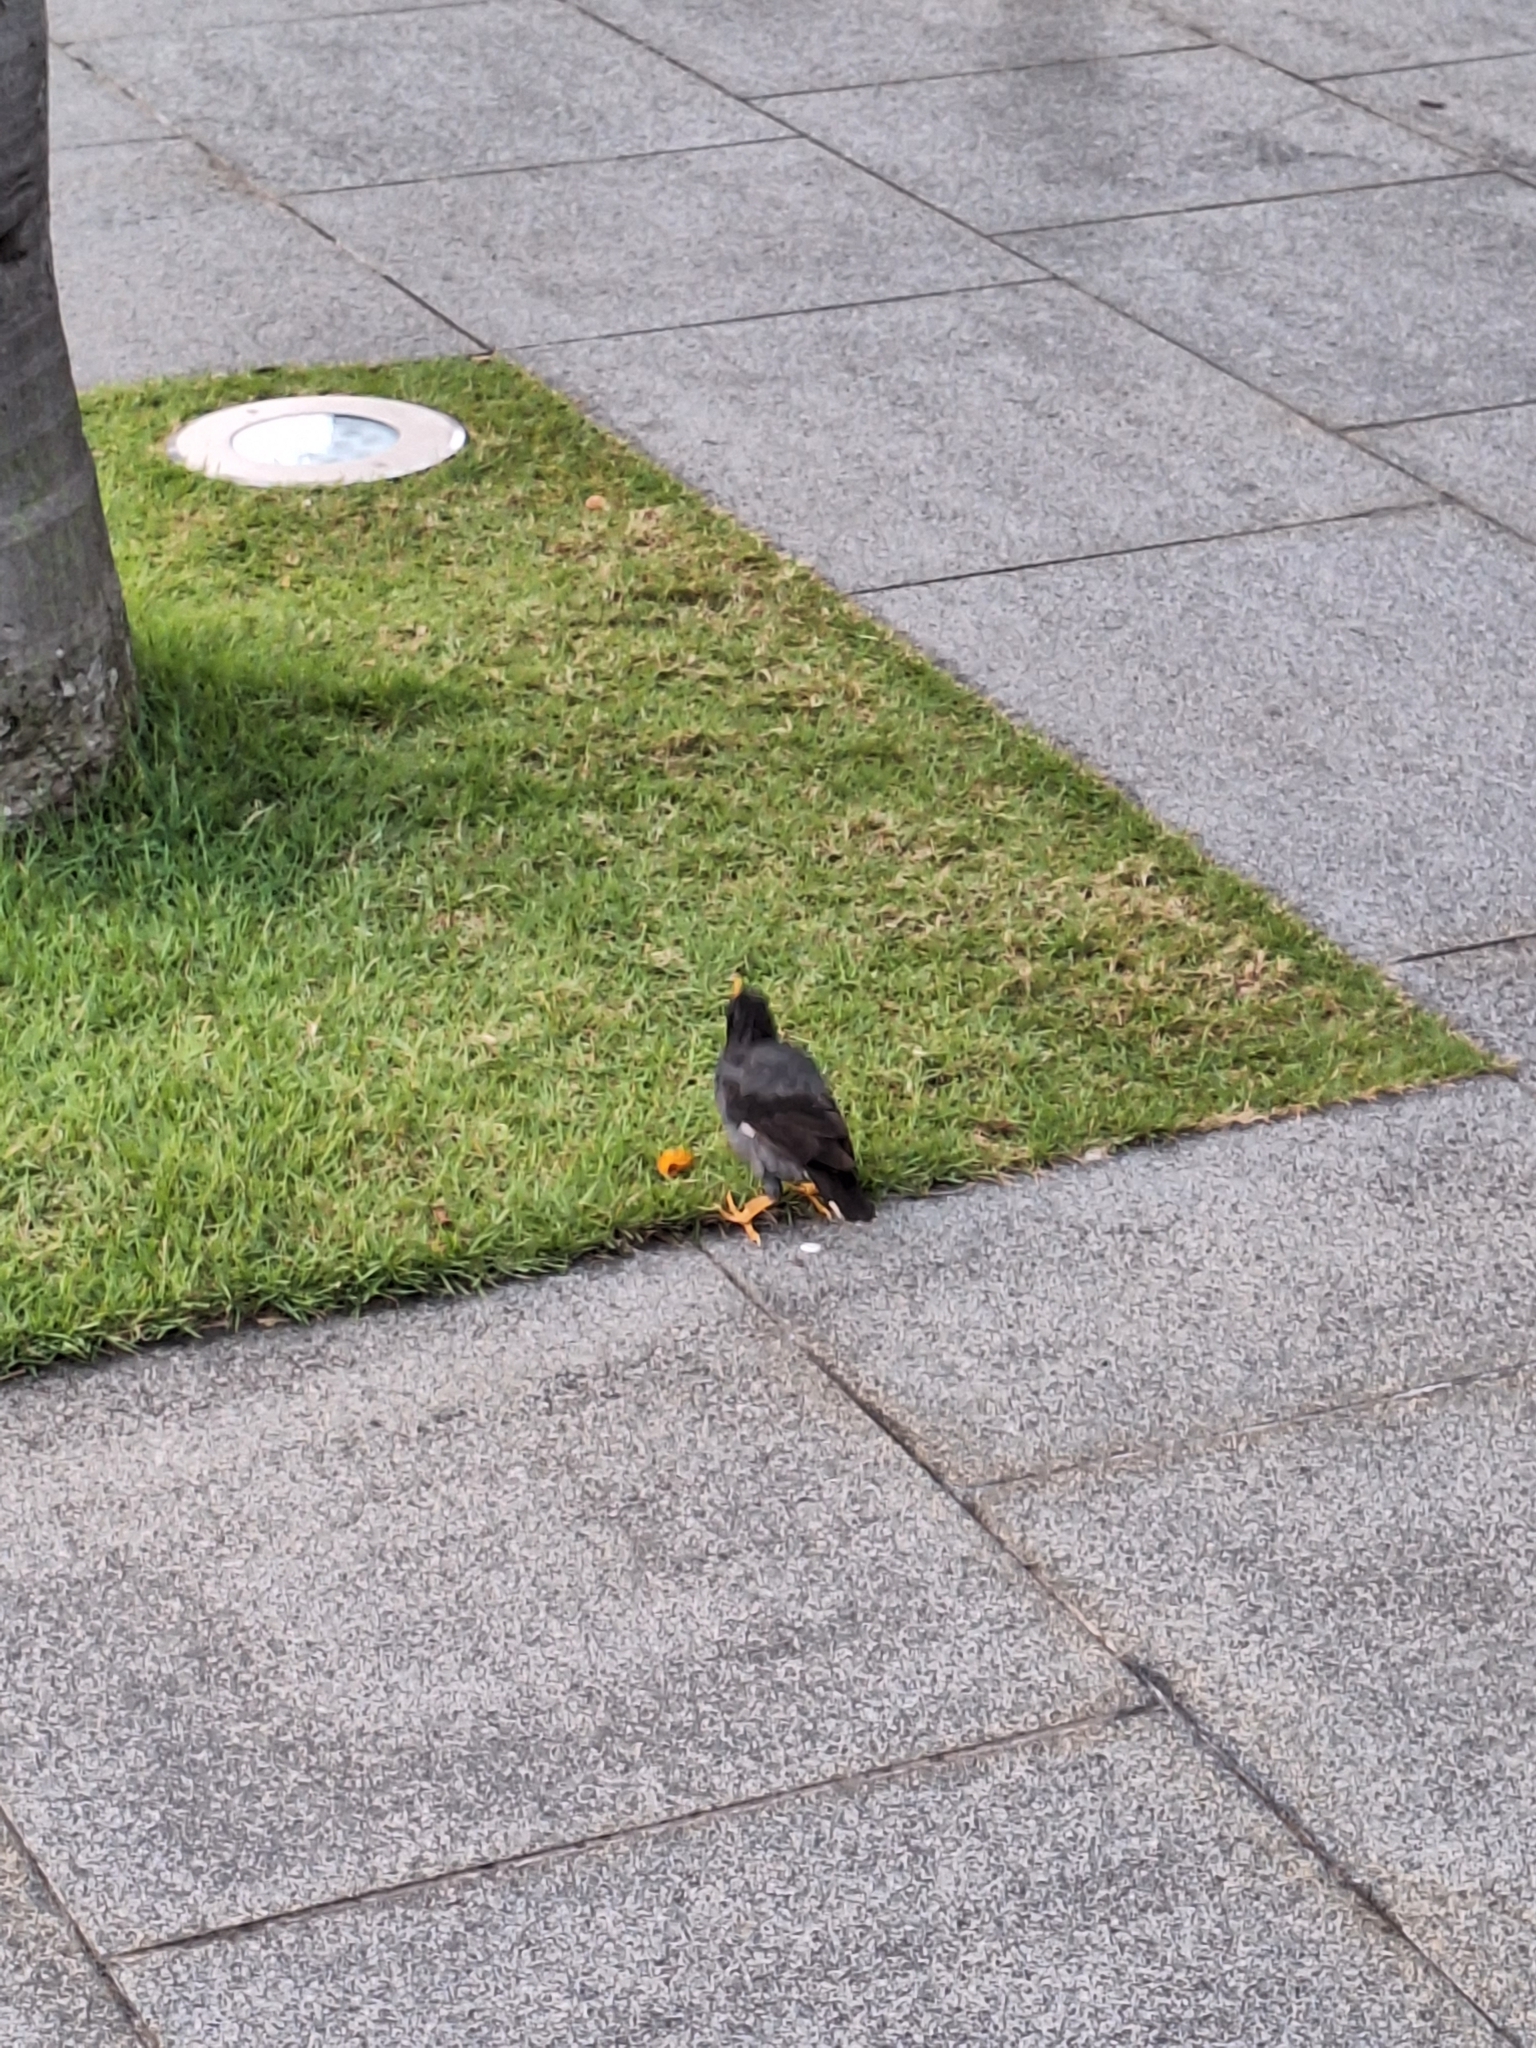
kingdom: Animalia
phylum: Chordata
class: Aves
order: Passeriformes
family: Sturnidae
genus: Acridotheres
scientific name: Acridotheres javanicus
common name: Javan myna
